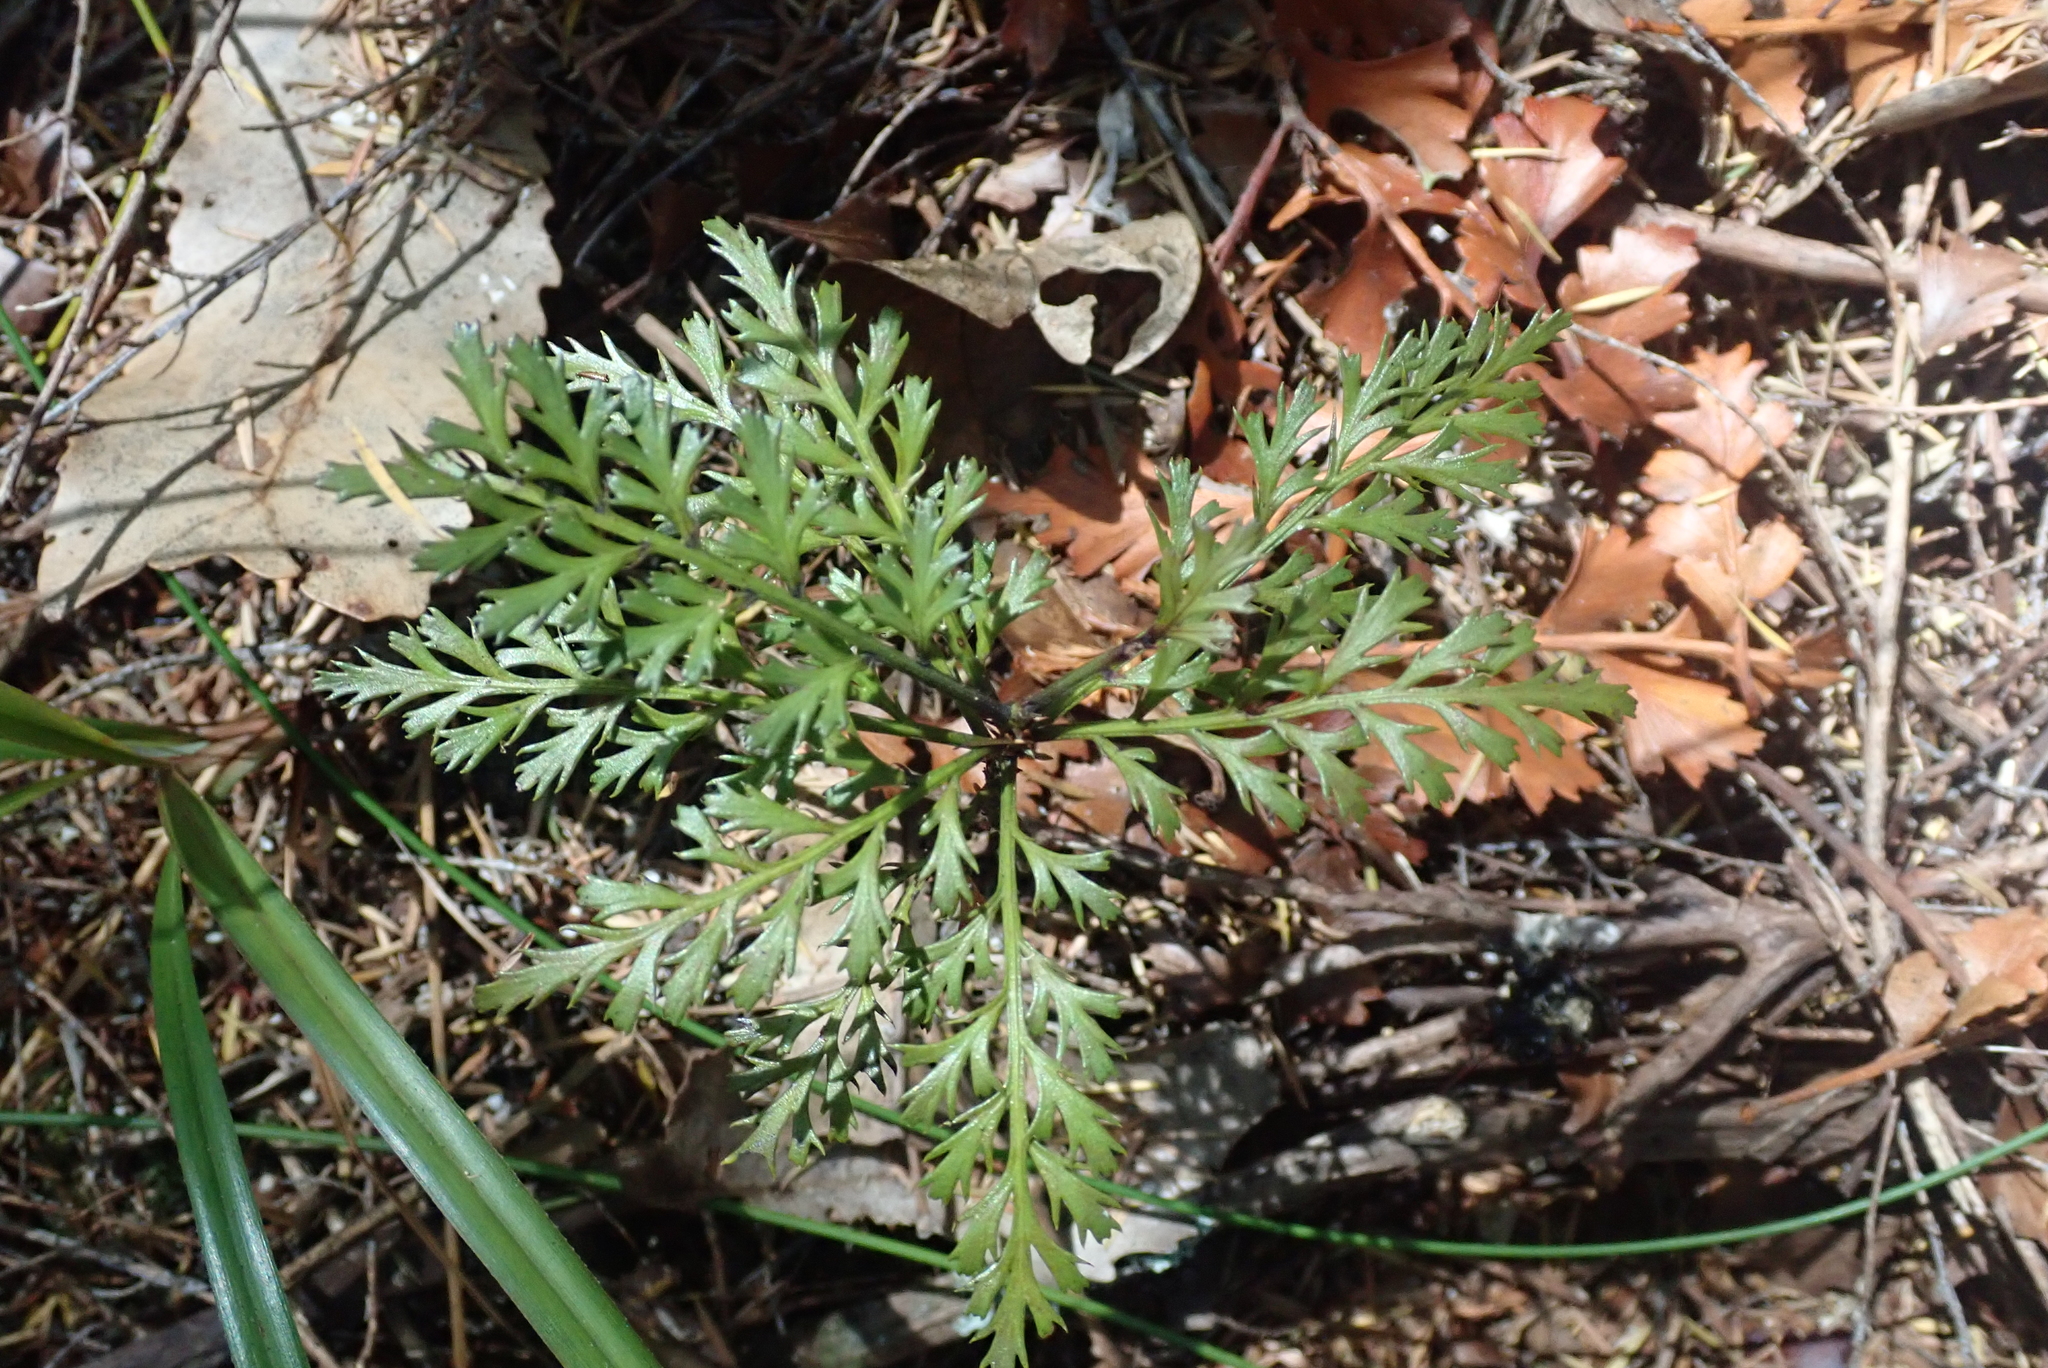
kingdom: Plantae
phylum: Tracheophyta
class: Pinopsida
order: Pinales
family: Phyllocladaceae
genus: Phyllocladus
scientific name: Phyllocladus trichomanoides
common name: Celery pine
